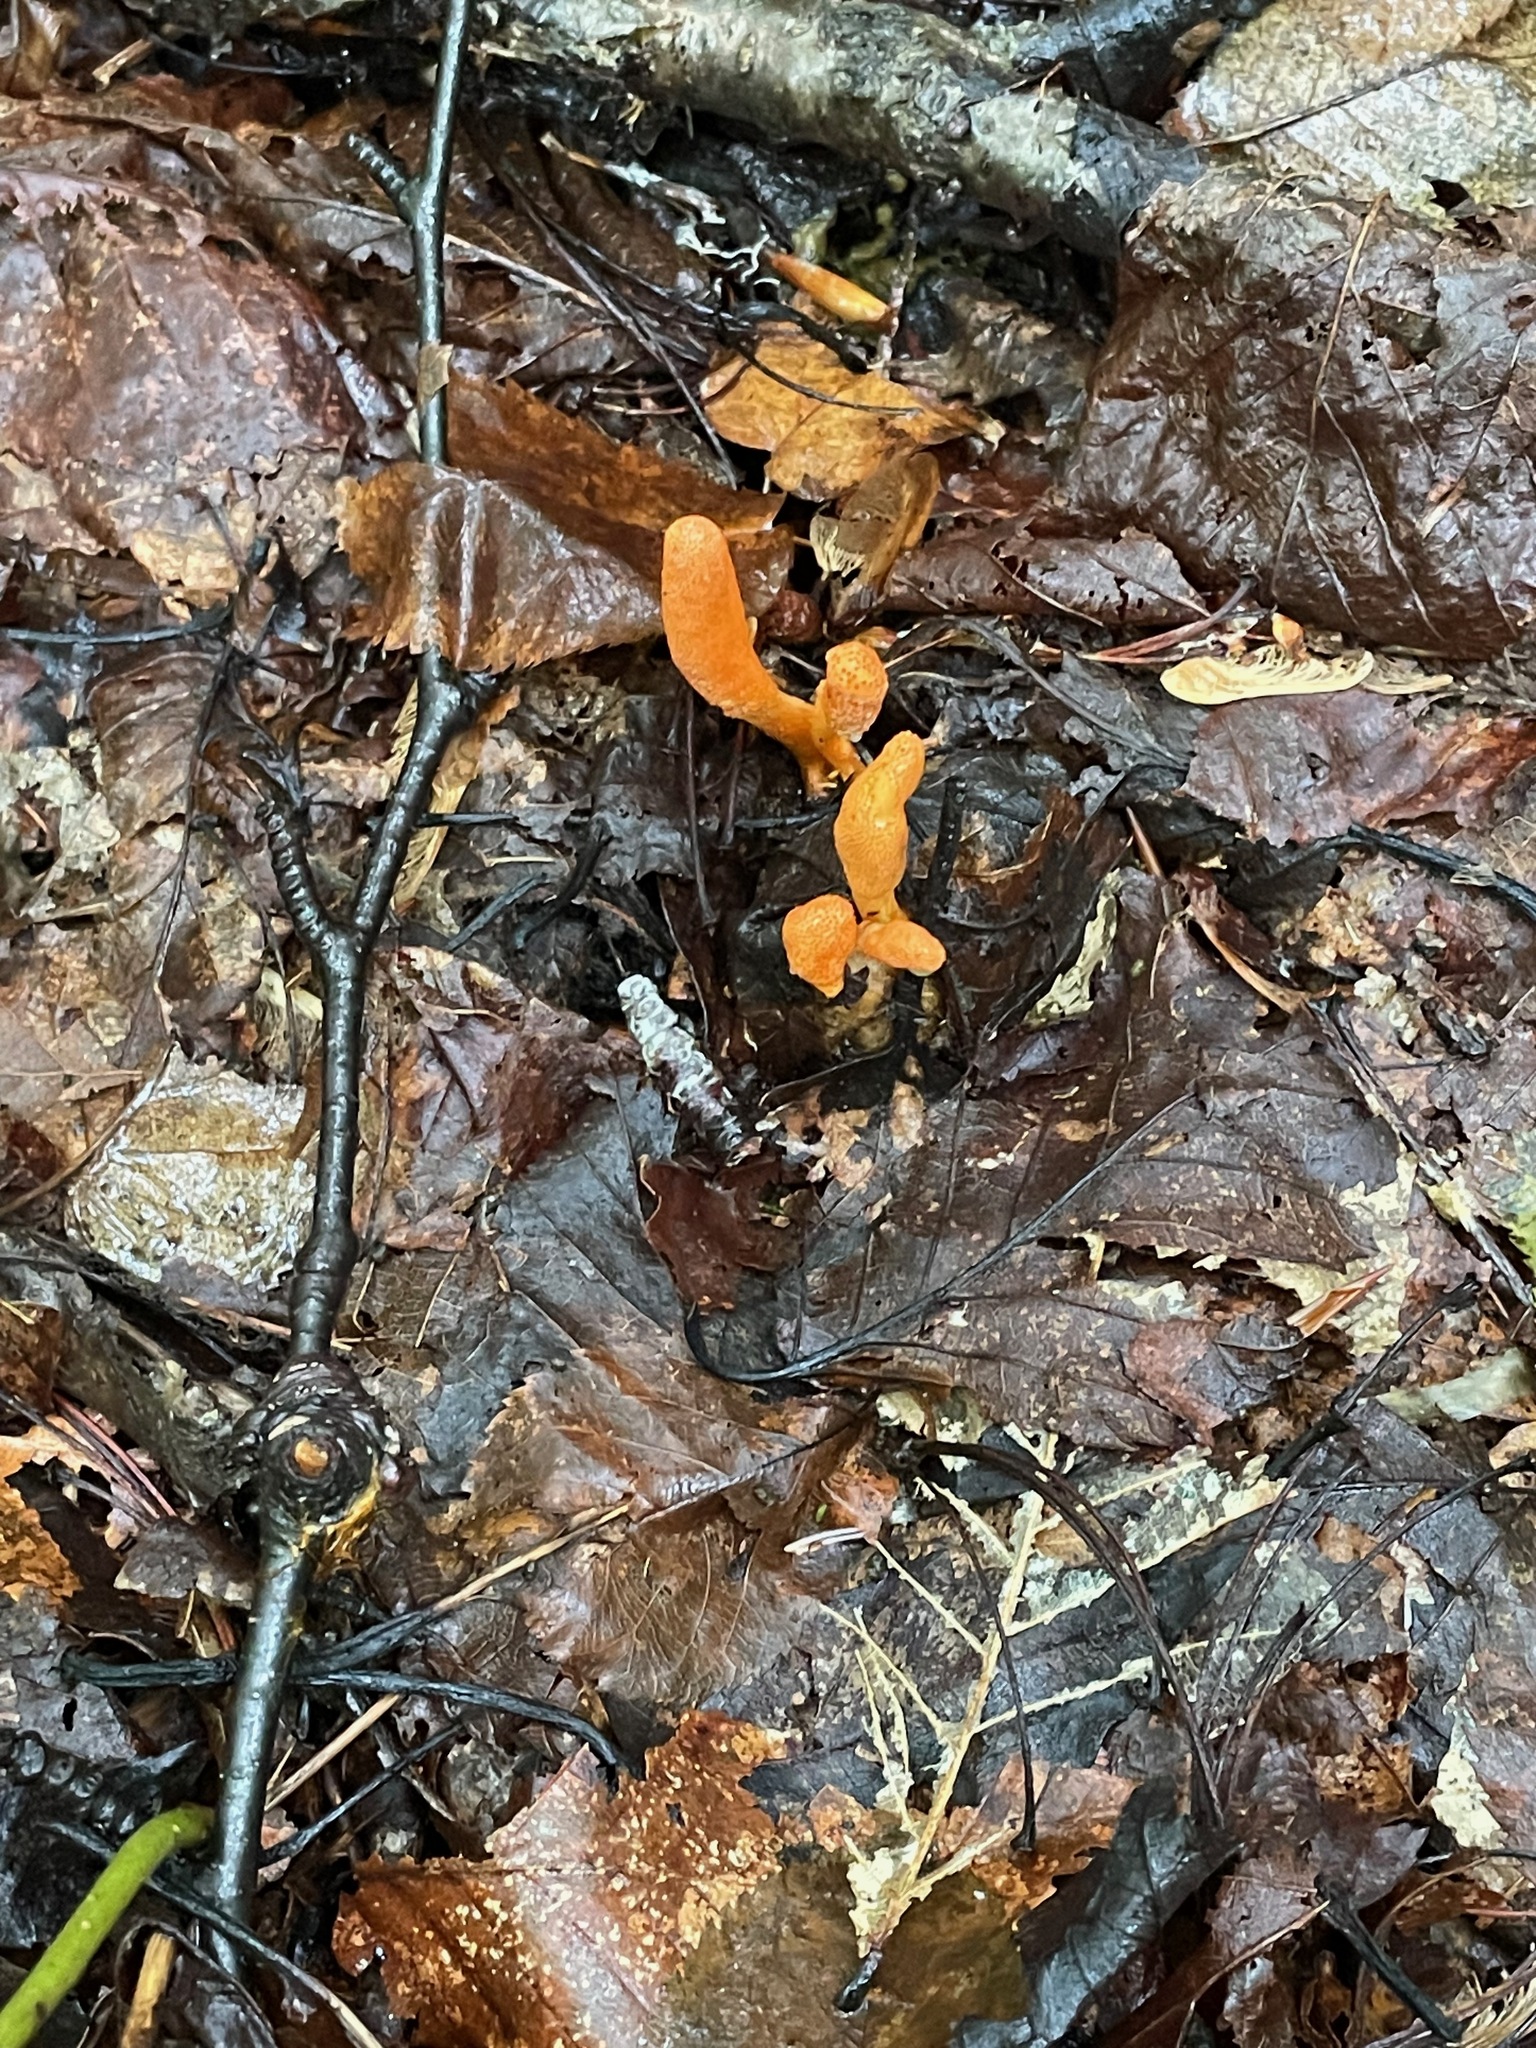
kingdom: Fungi
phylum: Ascomycota
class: Sordariomycetes
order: Hypocreales
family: Cordycipitaceae
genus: Cordyceps
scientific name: Cordyceps militaris
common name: Scarlet caterpillar fungus
